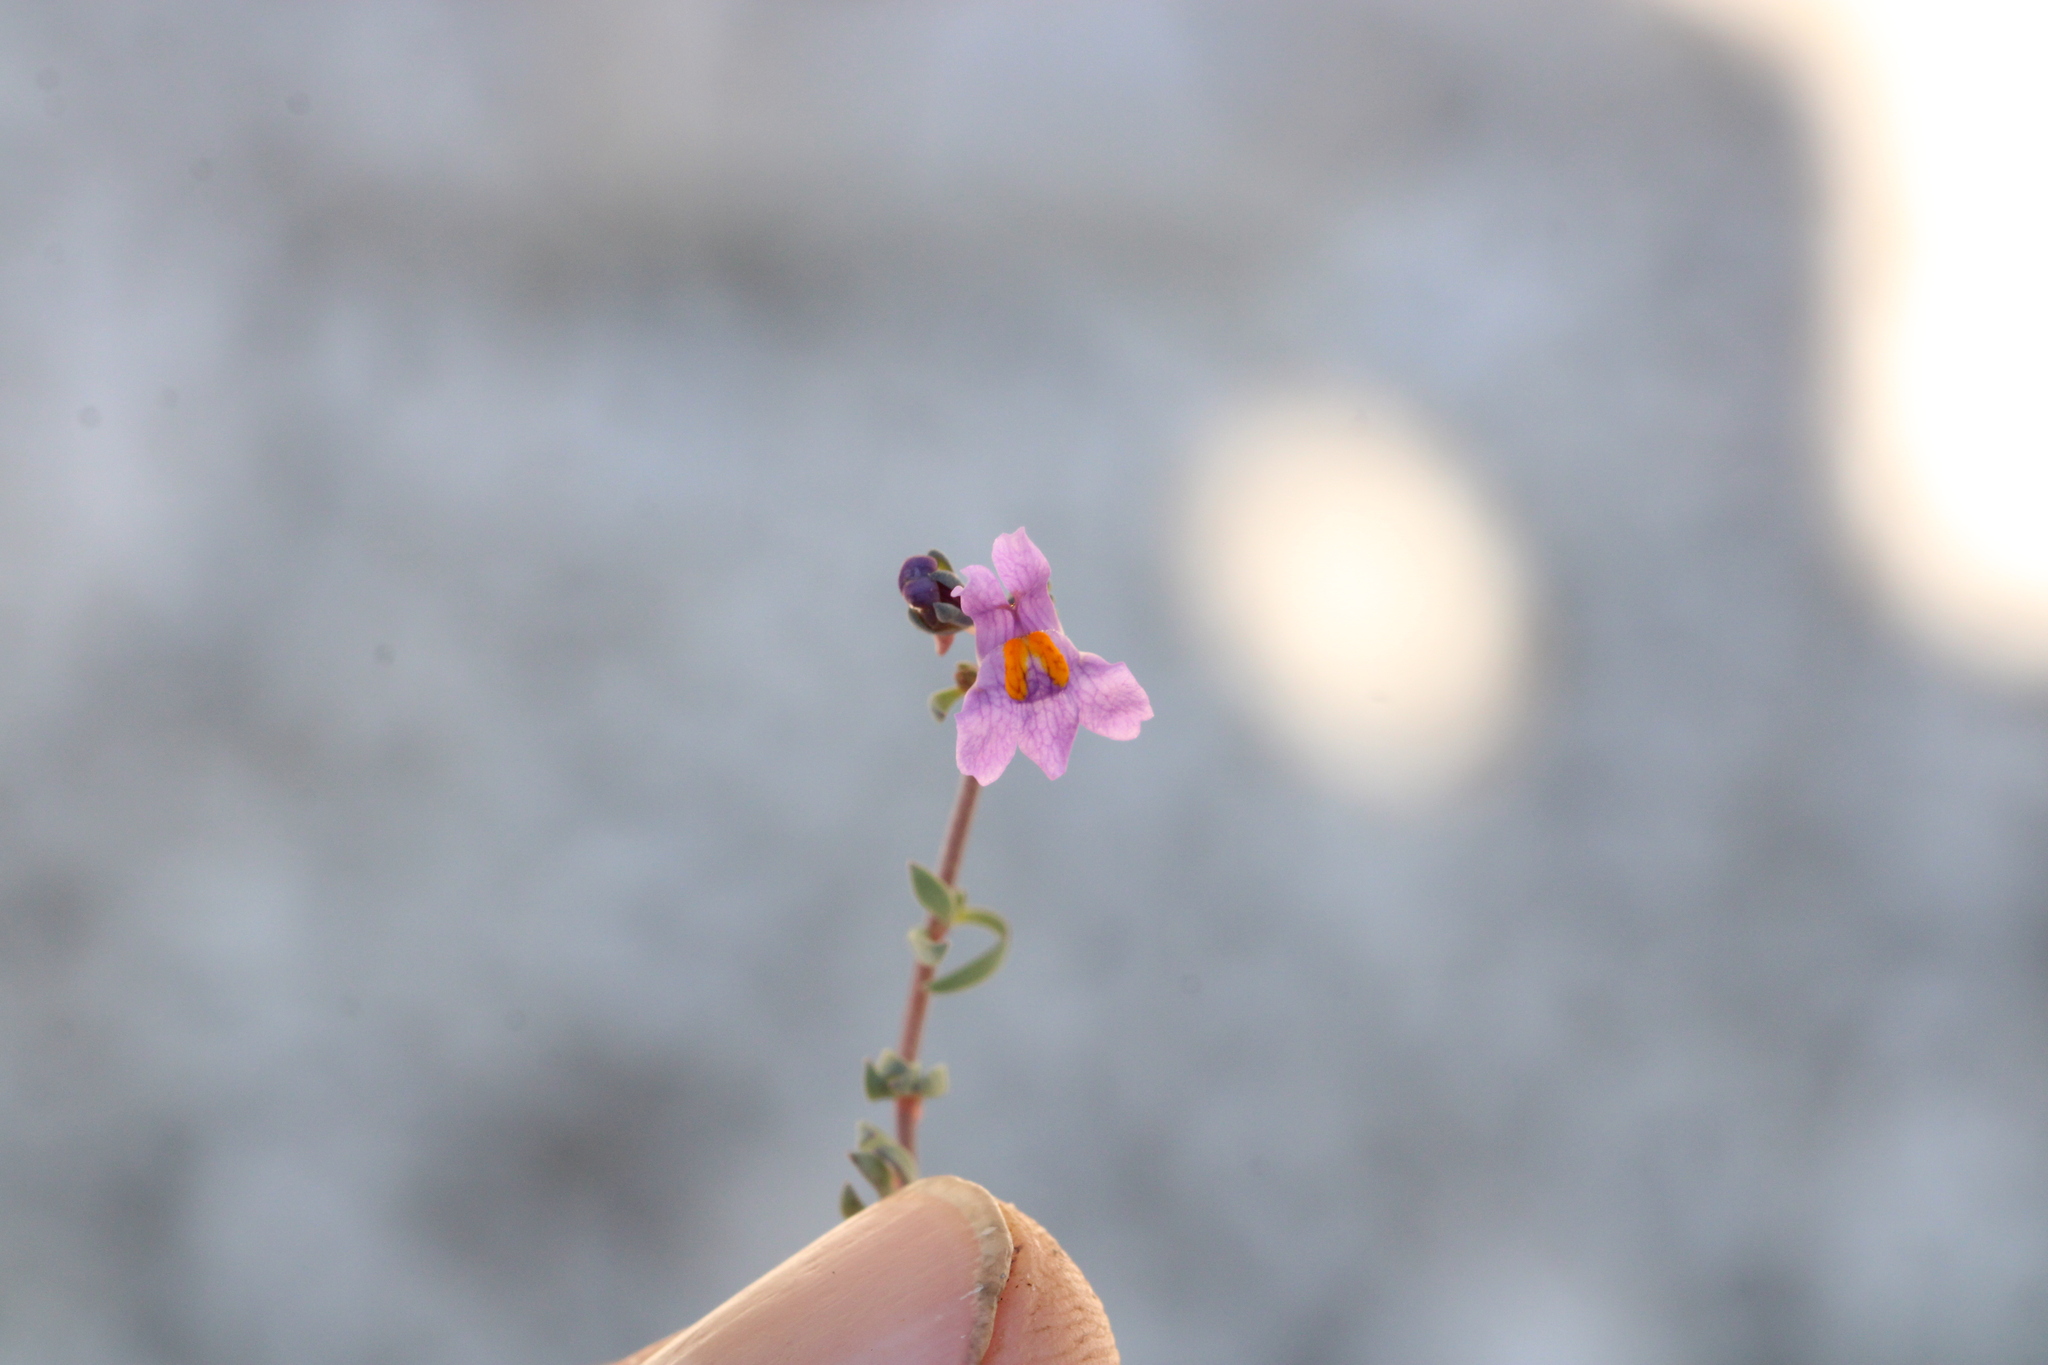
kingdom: Plantae
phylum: Tracheophyta
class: Magnoliopsida
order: Lamiales
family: Plantaginaceae
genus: Linaria
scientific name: Linaria alpina
